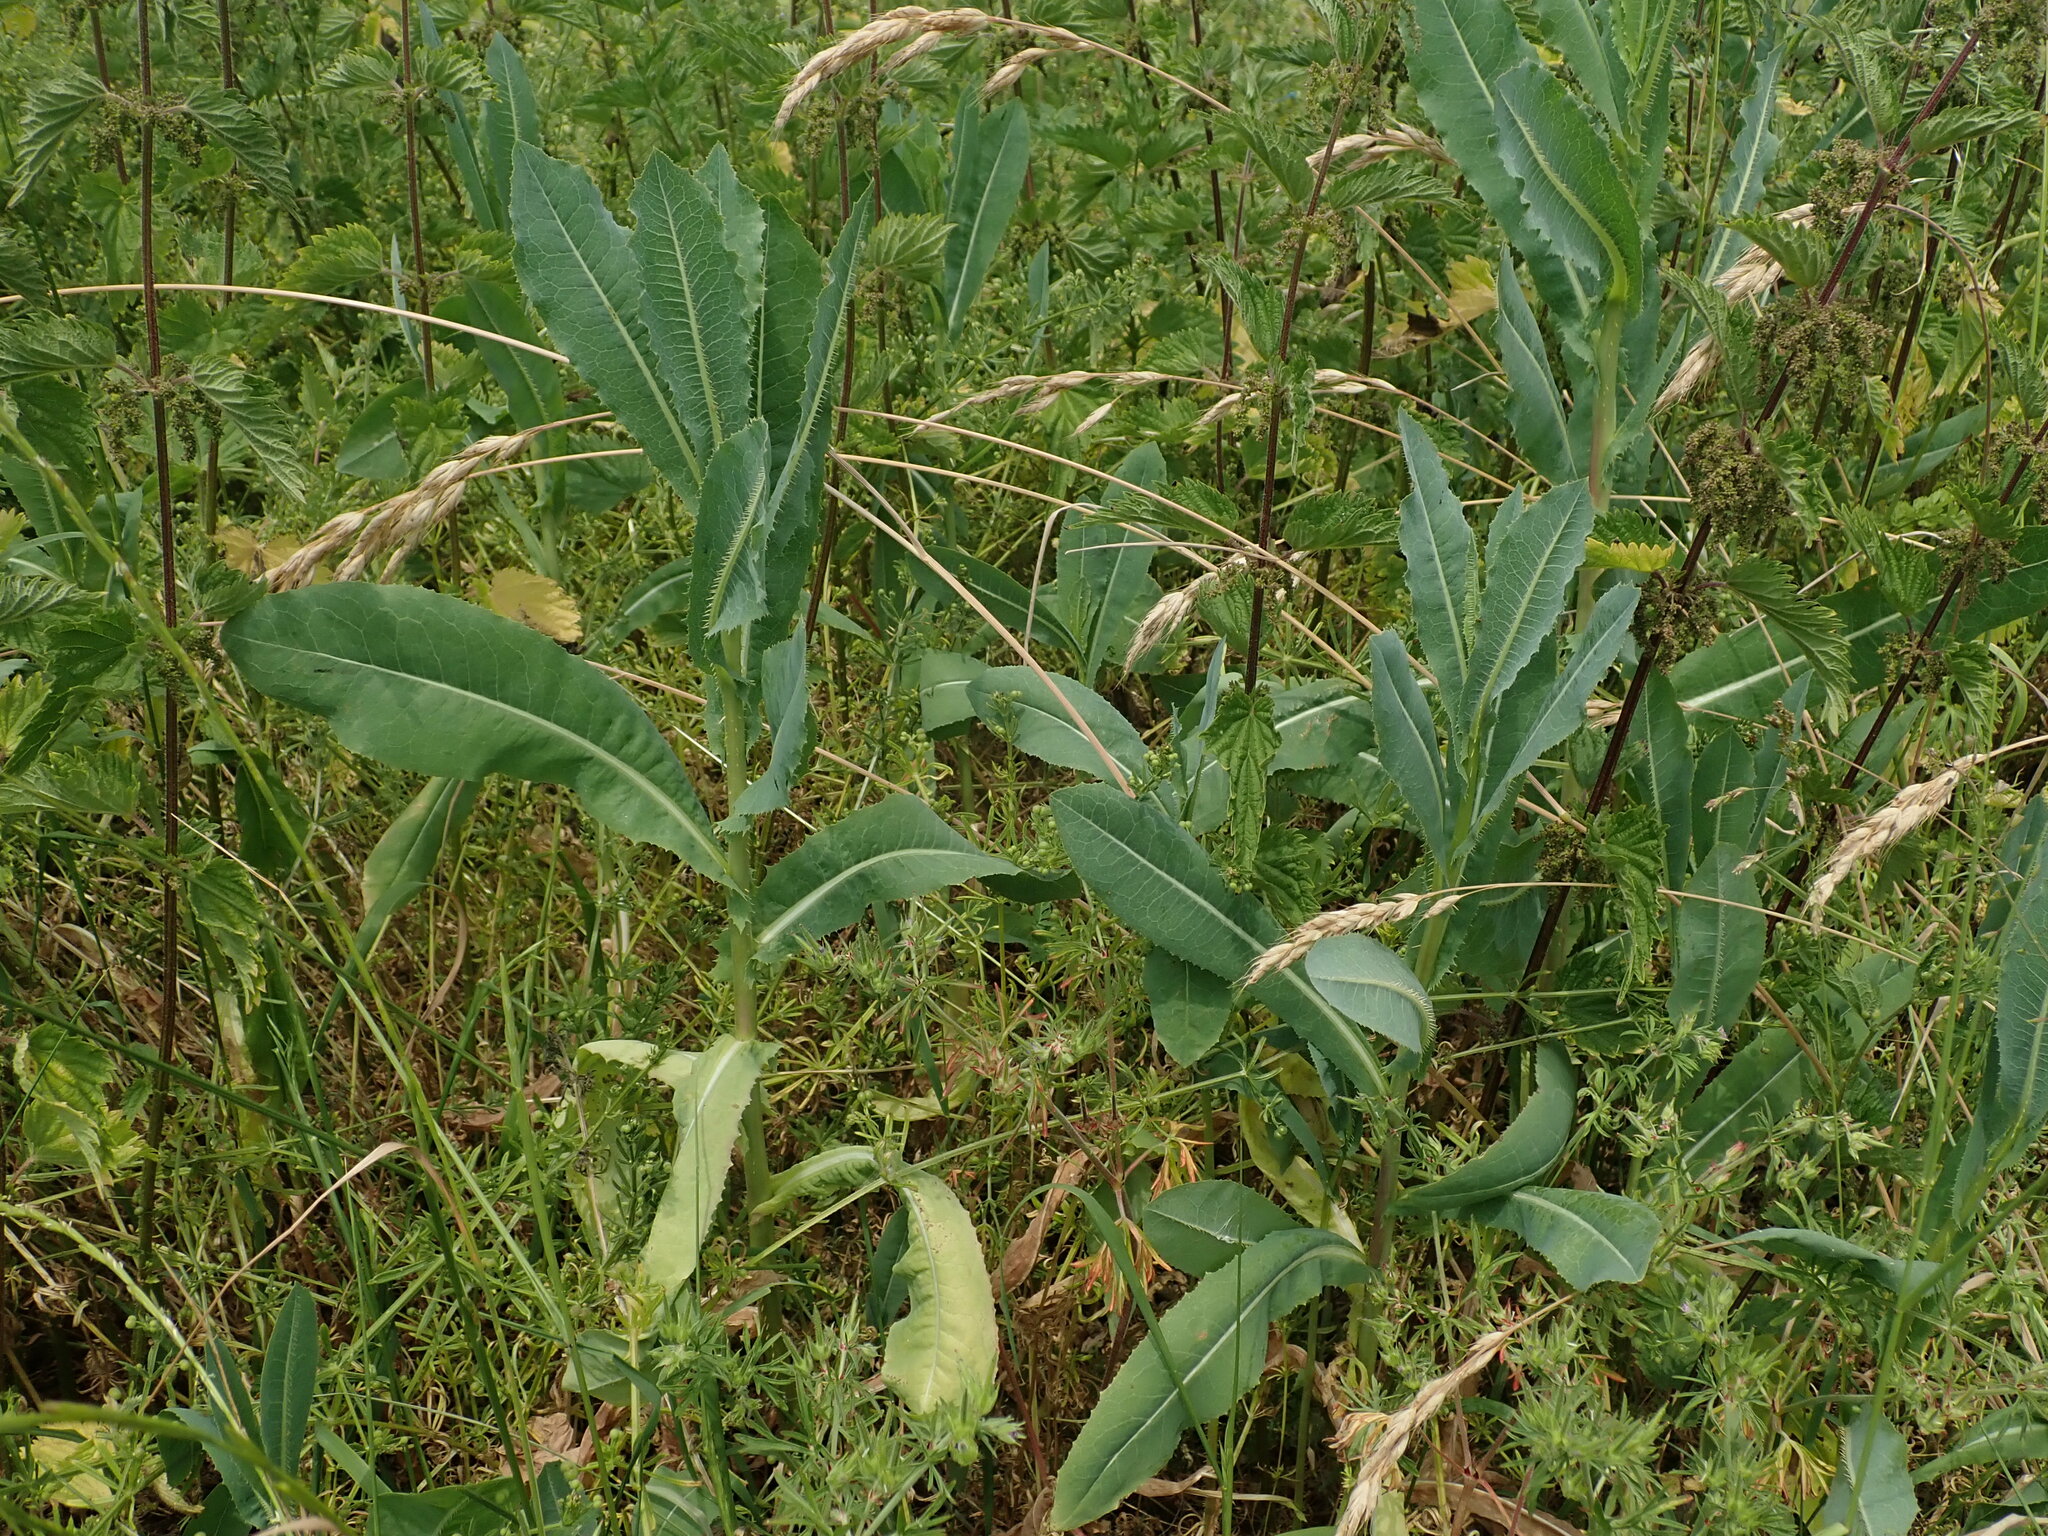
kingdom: Plantae
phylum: Tracheophyta
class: Magnoliopsida
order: Asterales
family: Asteraceae
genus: Lactuca
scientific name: Lactuca serriola
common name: Prickly lettuce
